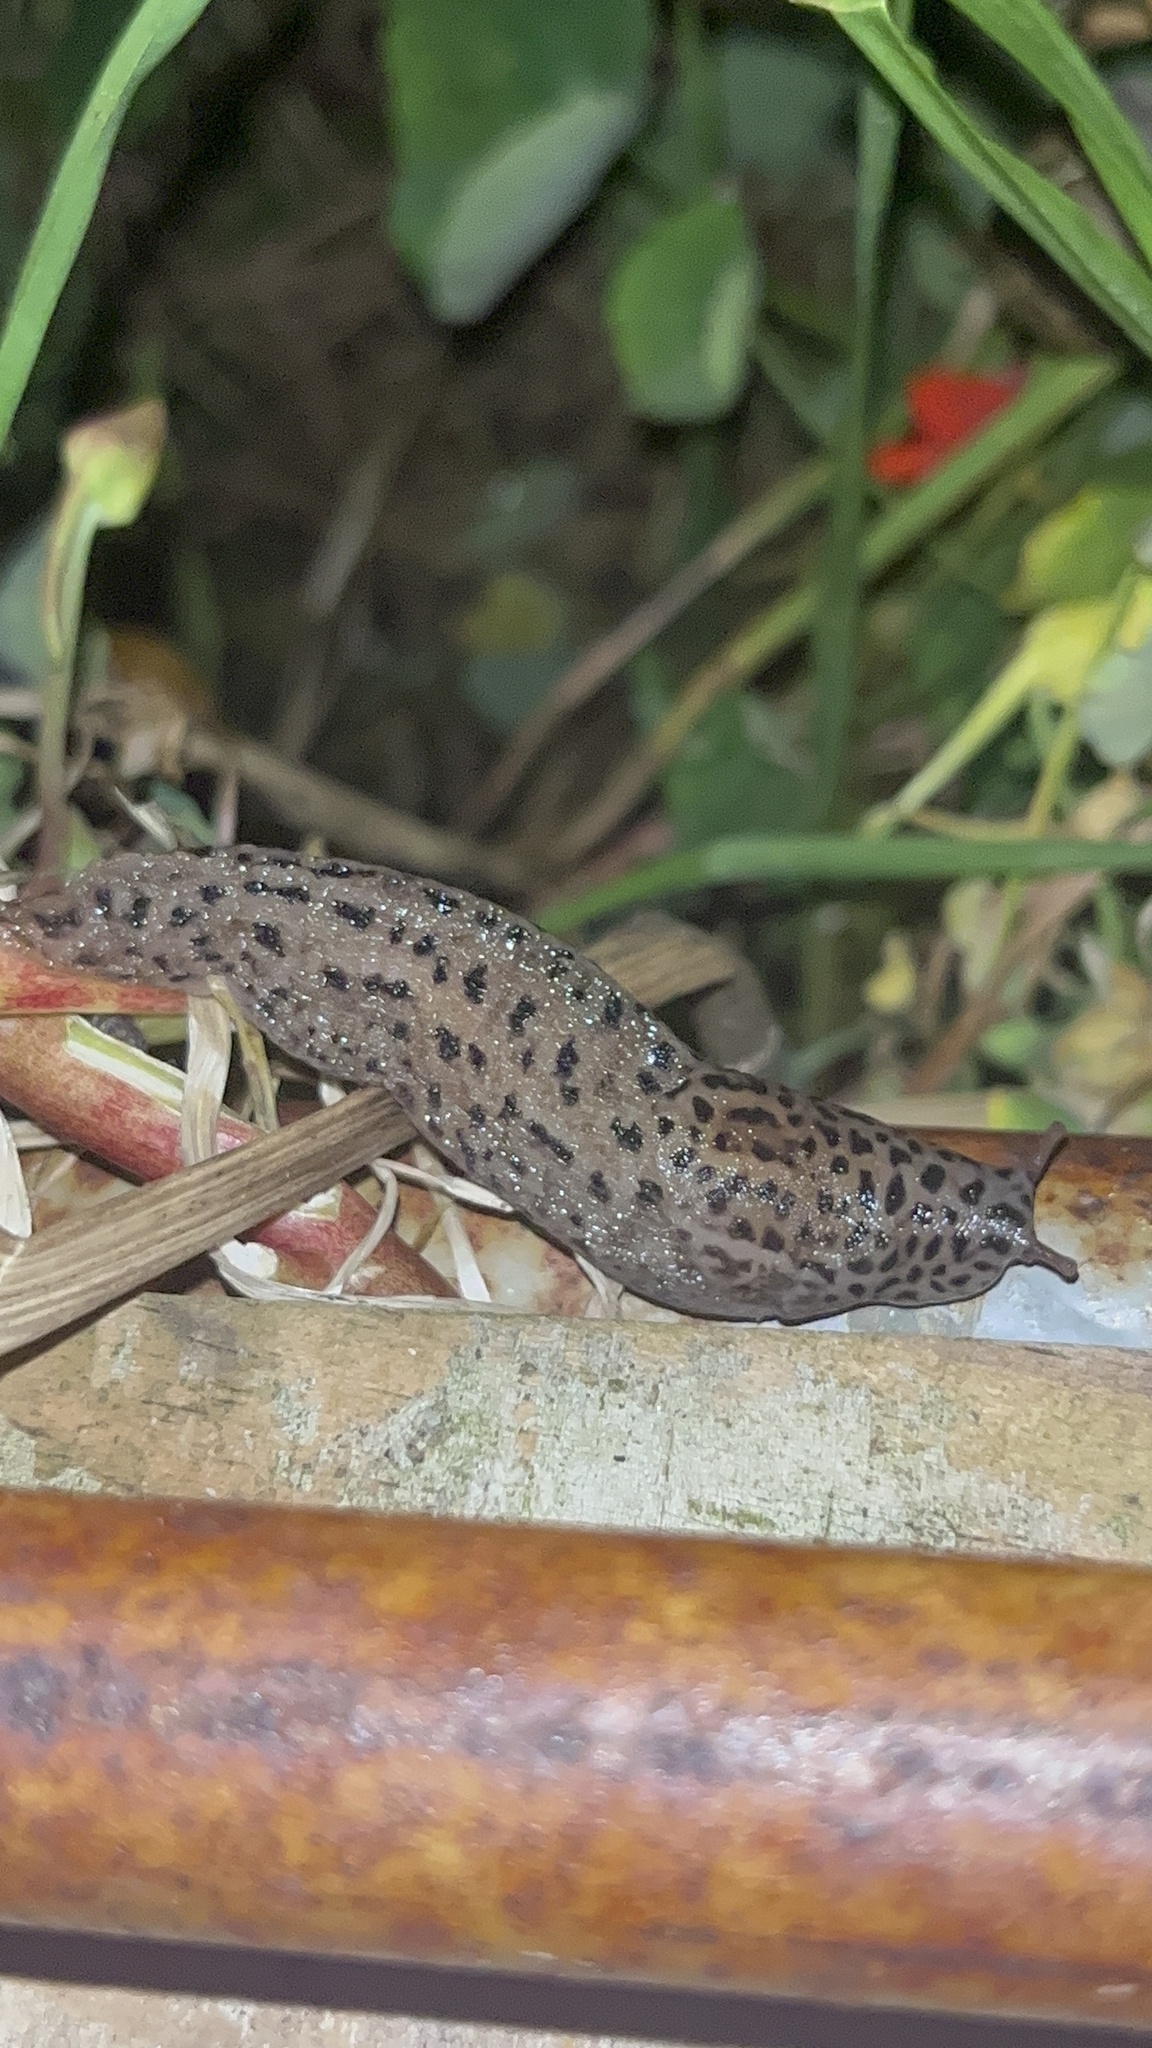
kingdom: Animalia
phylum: Mollusca
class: Gastropoda
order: Stylommatophora
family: Limacidae
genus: Limax
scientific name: Limax maximus
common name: Great grey slug
